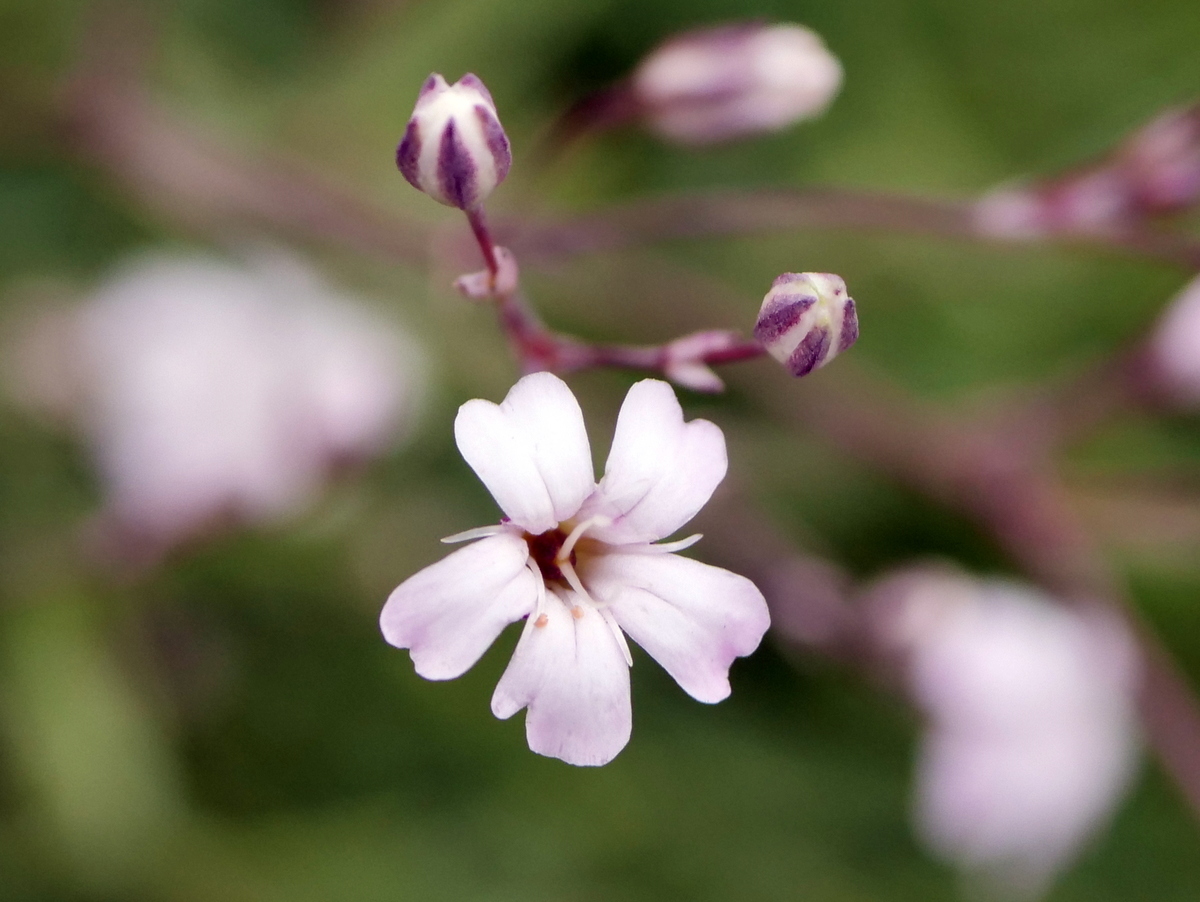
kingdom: Plantae
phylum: Tracheophyta
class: Magnoliopsida
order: Caryophyllales
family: Caryophyllaceae
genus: Gypsophila
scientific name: Gypsophila repens
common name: Creeping baby's-breath
